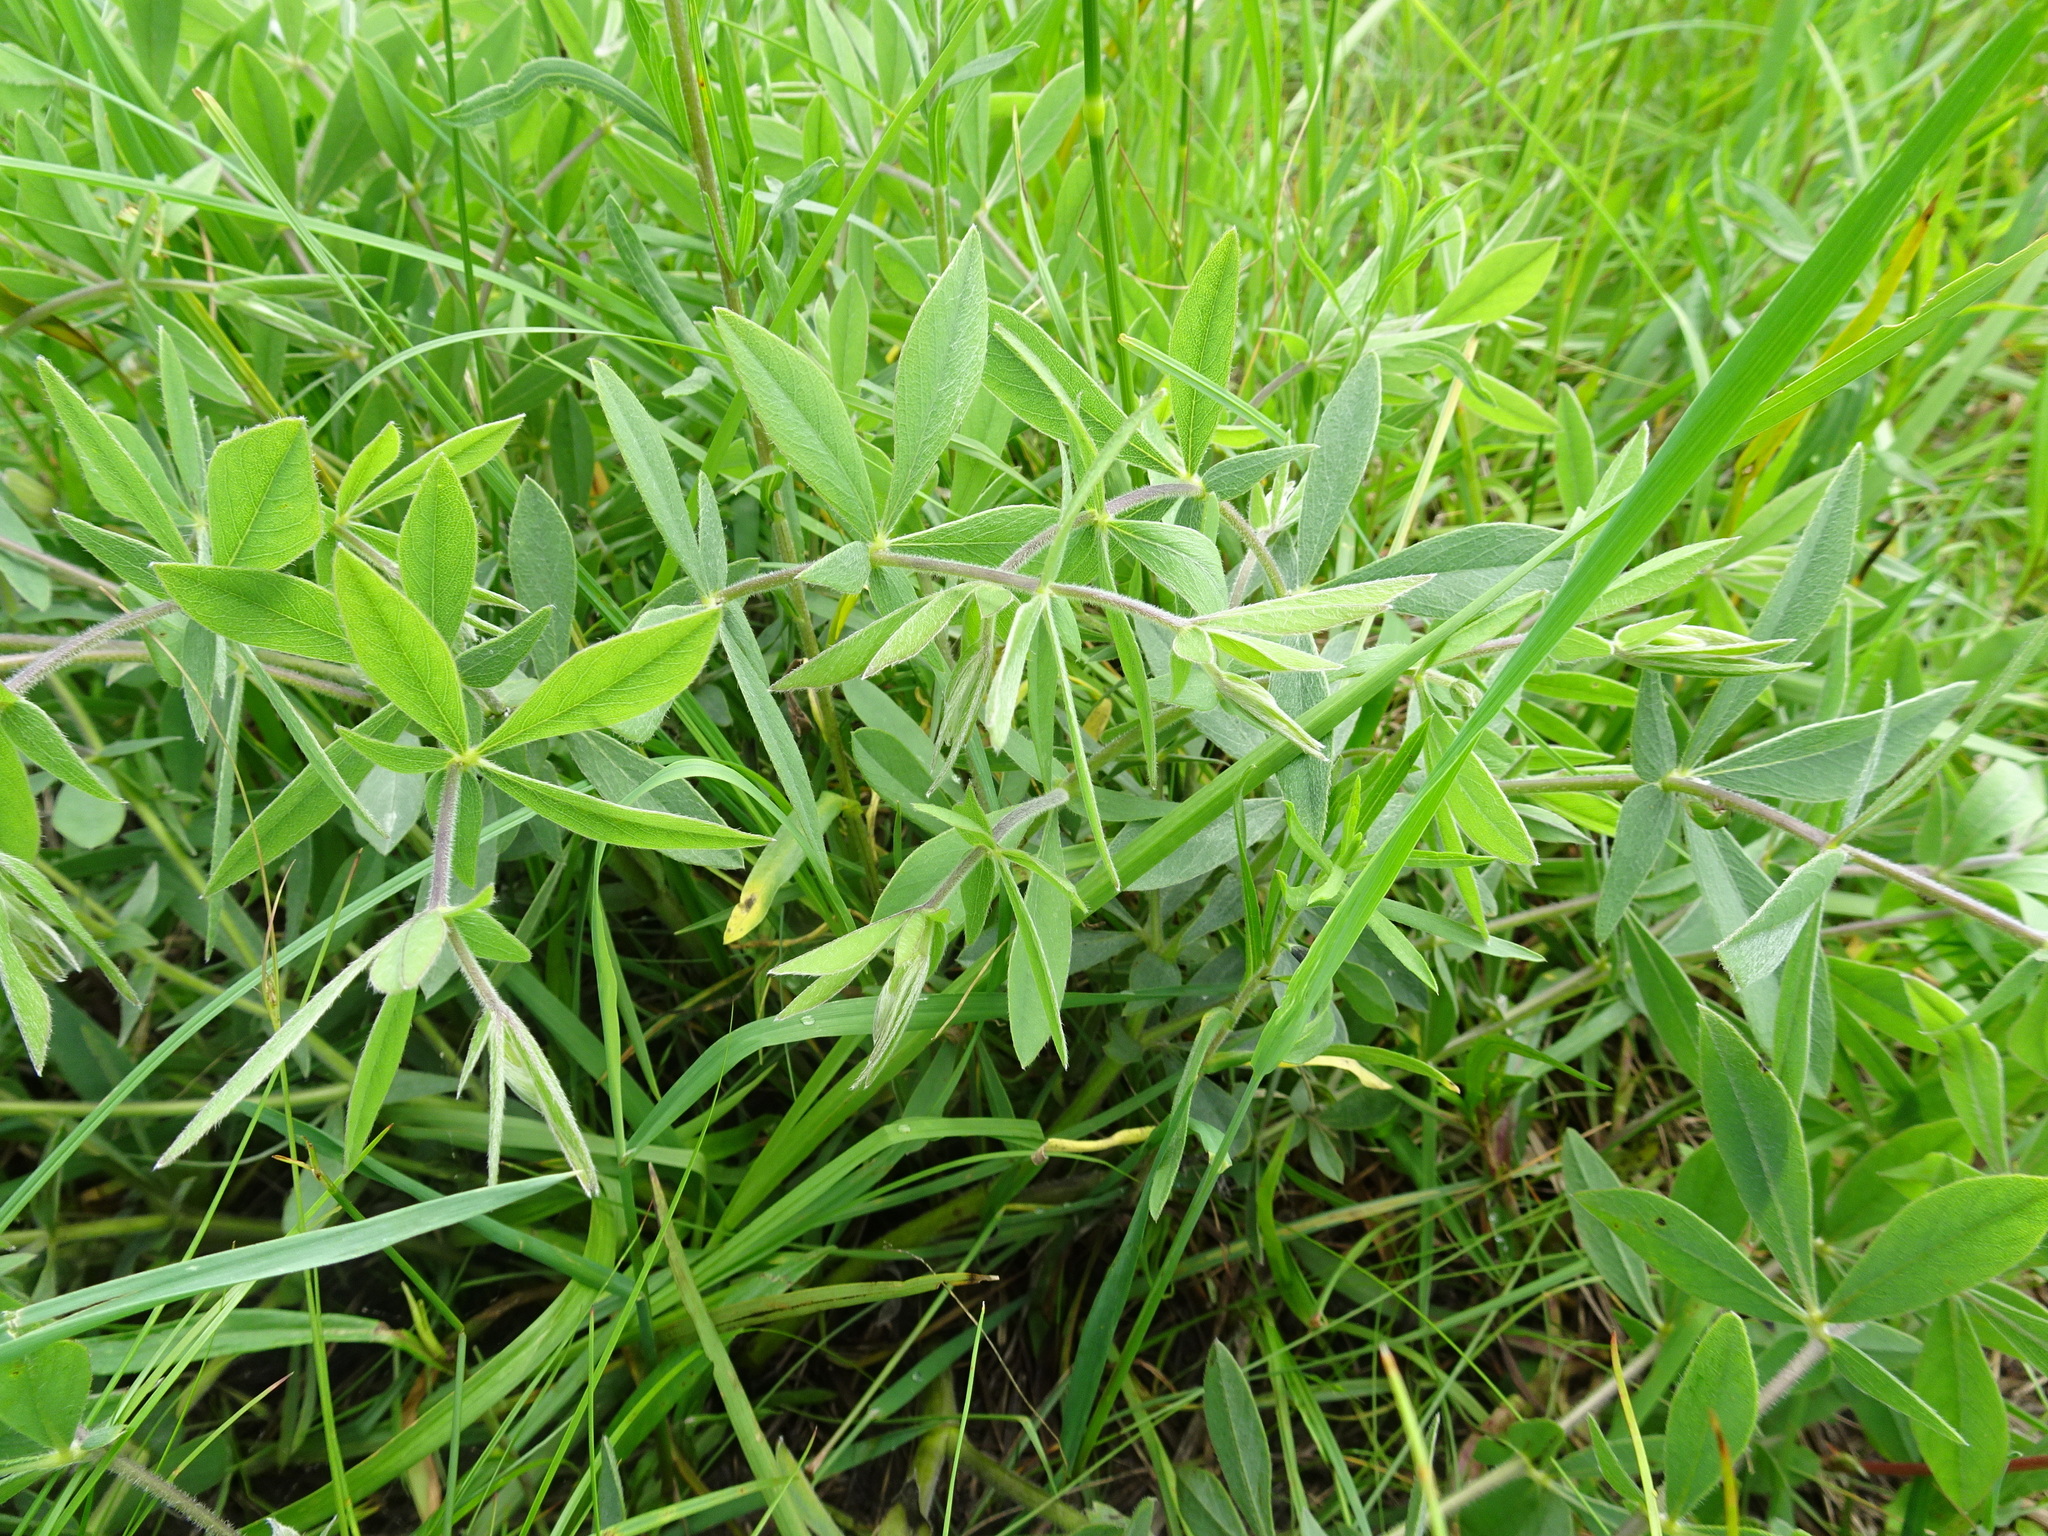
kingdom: Plantae
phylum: Tracheophyta
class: Magnoliopsida
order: Fabales
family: Fabaceae
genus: Baptisia
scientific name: Baptisia bracteata
